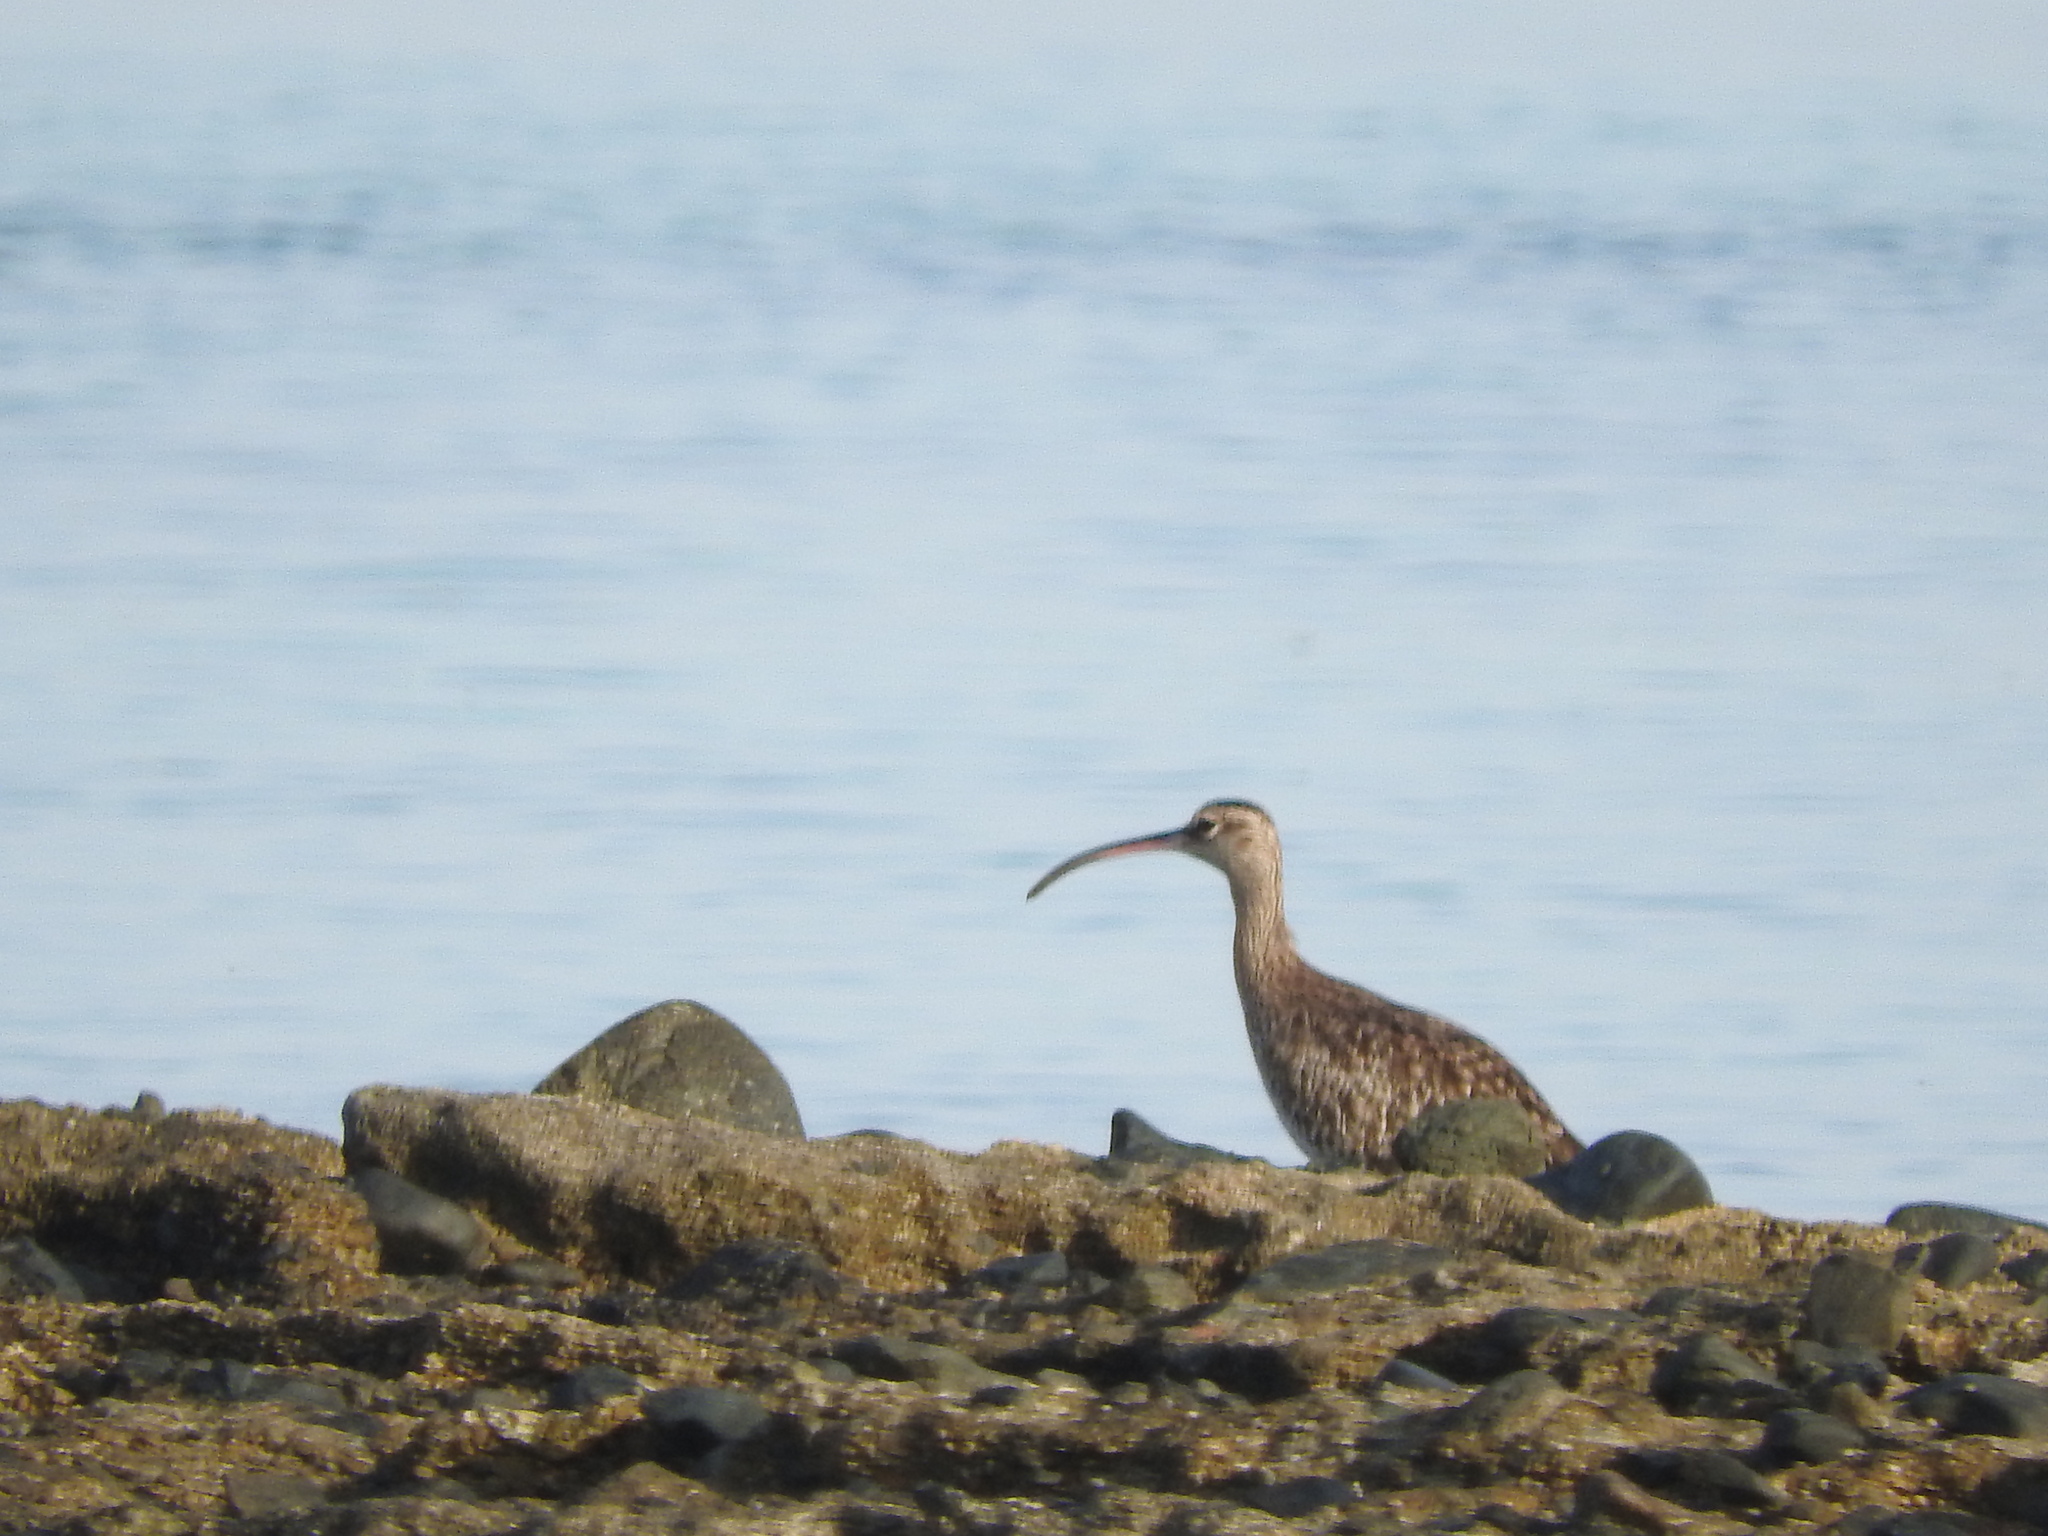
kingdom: Animalia
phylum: Chordata
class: Aves
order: Charadriiformes
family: Scolopacidae
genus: Numenius
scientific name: Numenius phaeopus
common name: Whimbrel
